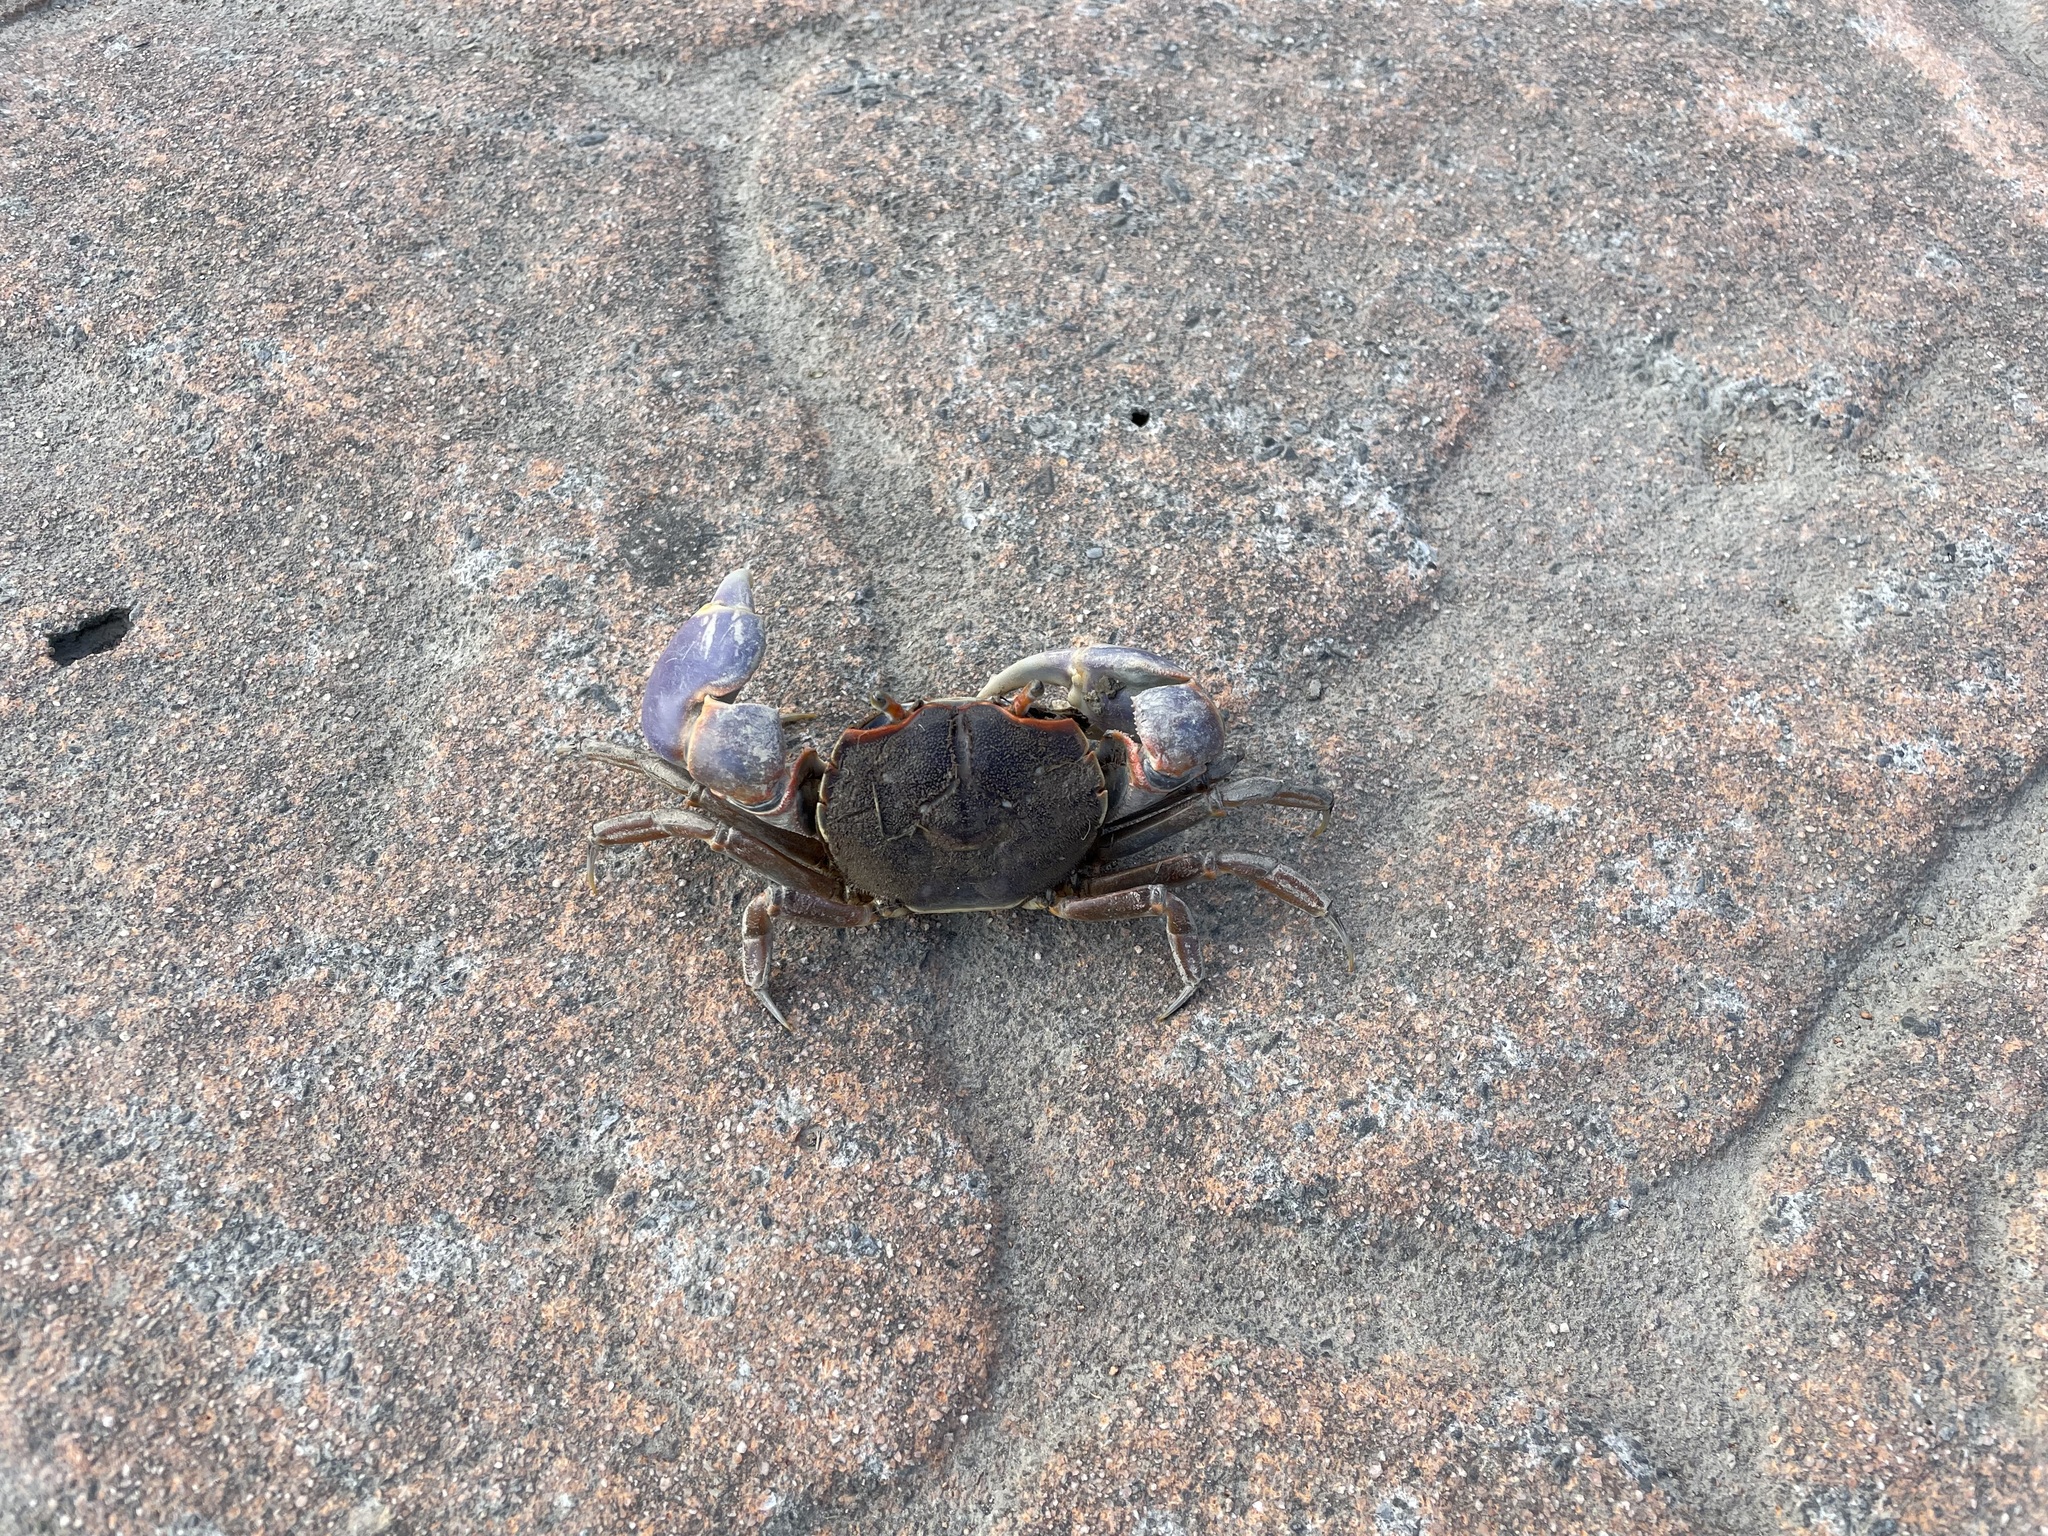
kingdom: Animalia
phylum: Arthropoda
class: Malacostraca
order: Decapoda
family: Varunidae
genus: Chasmagnathus
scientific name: Chasmagnathus convexus
